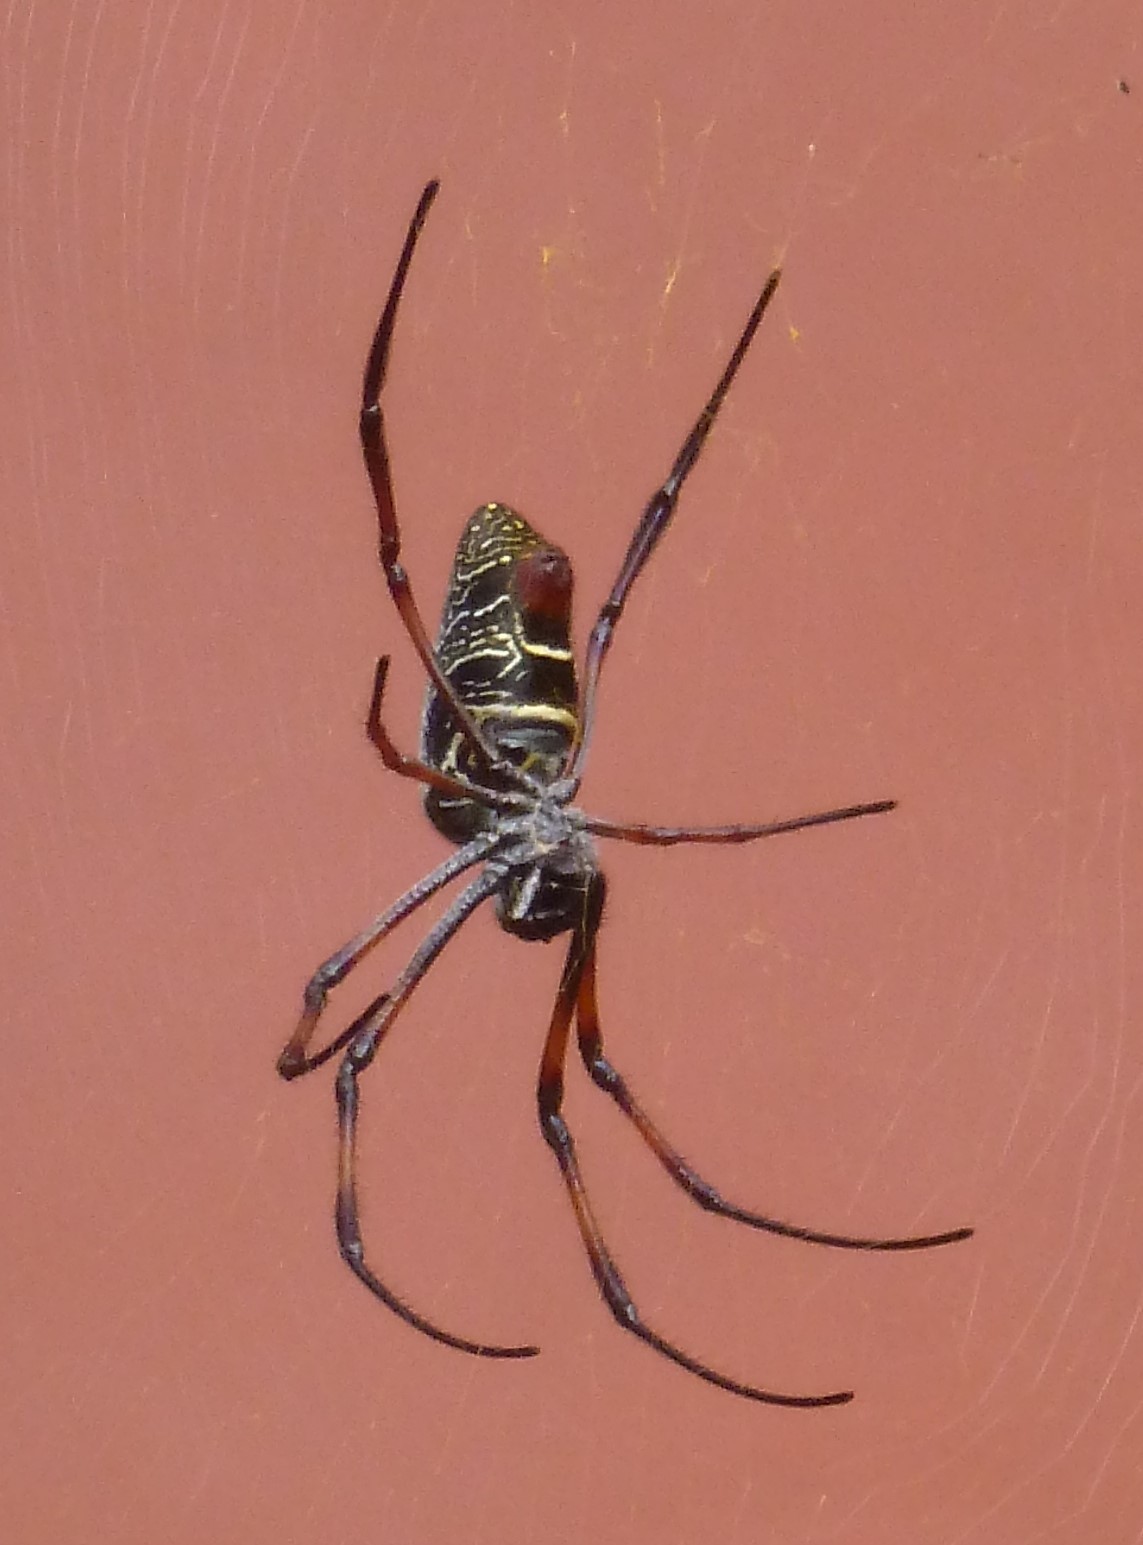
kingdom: Animalia
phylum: Arthropoda
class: Arachnida
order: Araneae
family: Araneidae
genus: Trichonephila
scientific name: Trichonephila inaurata
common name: Red-legged golden orb weaver
